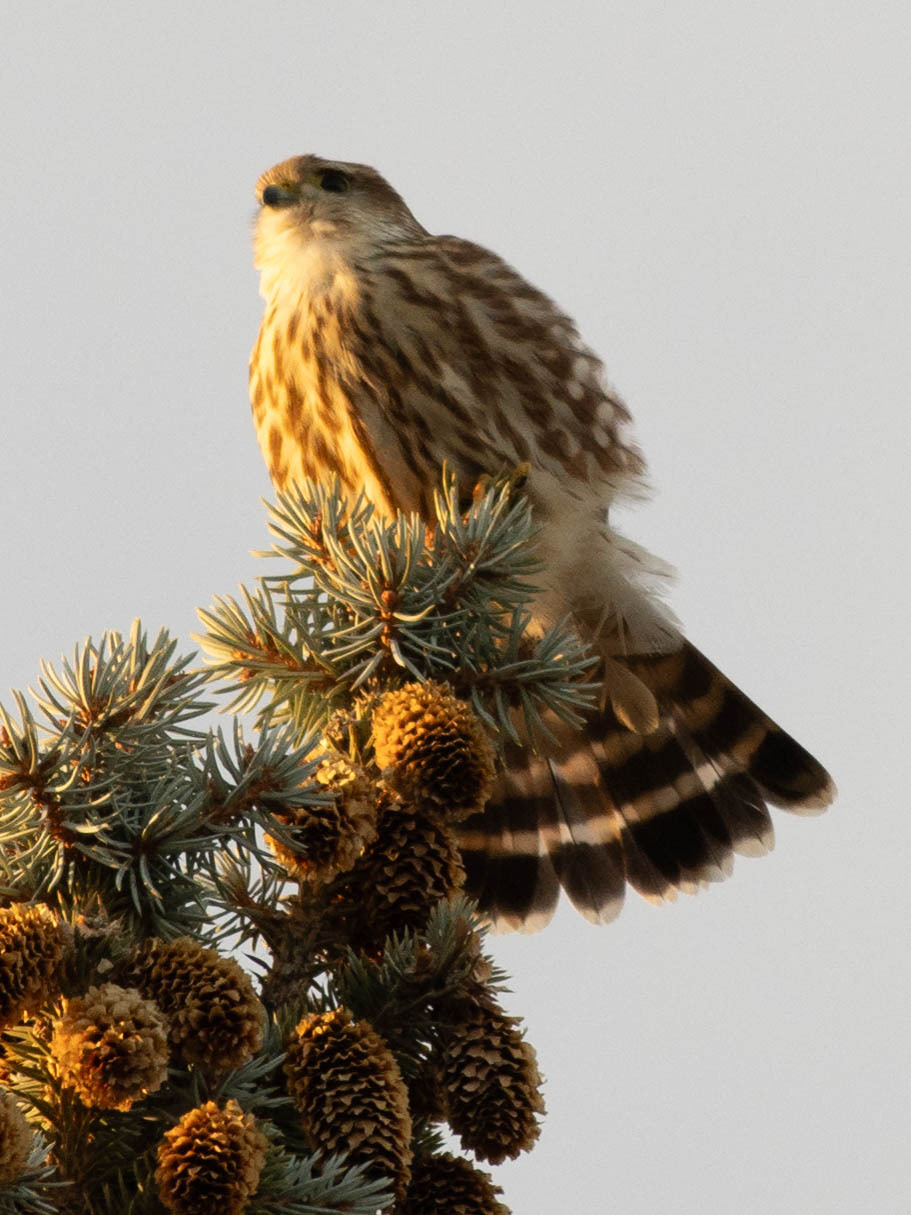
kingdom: Animalia
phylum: Chordata
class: Aves
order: Falconiformes
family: Falconidae
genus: Falco
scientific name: Falco columbarius
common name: Merlin
